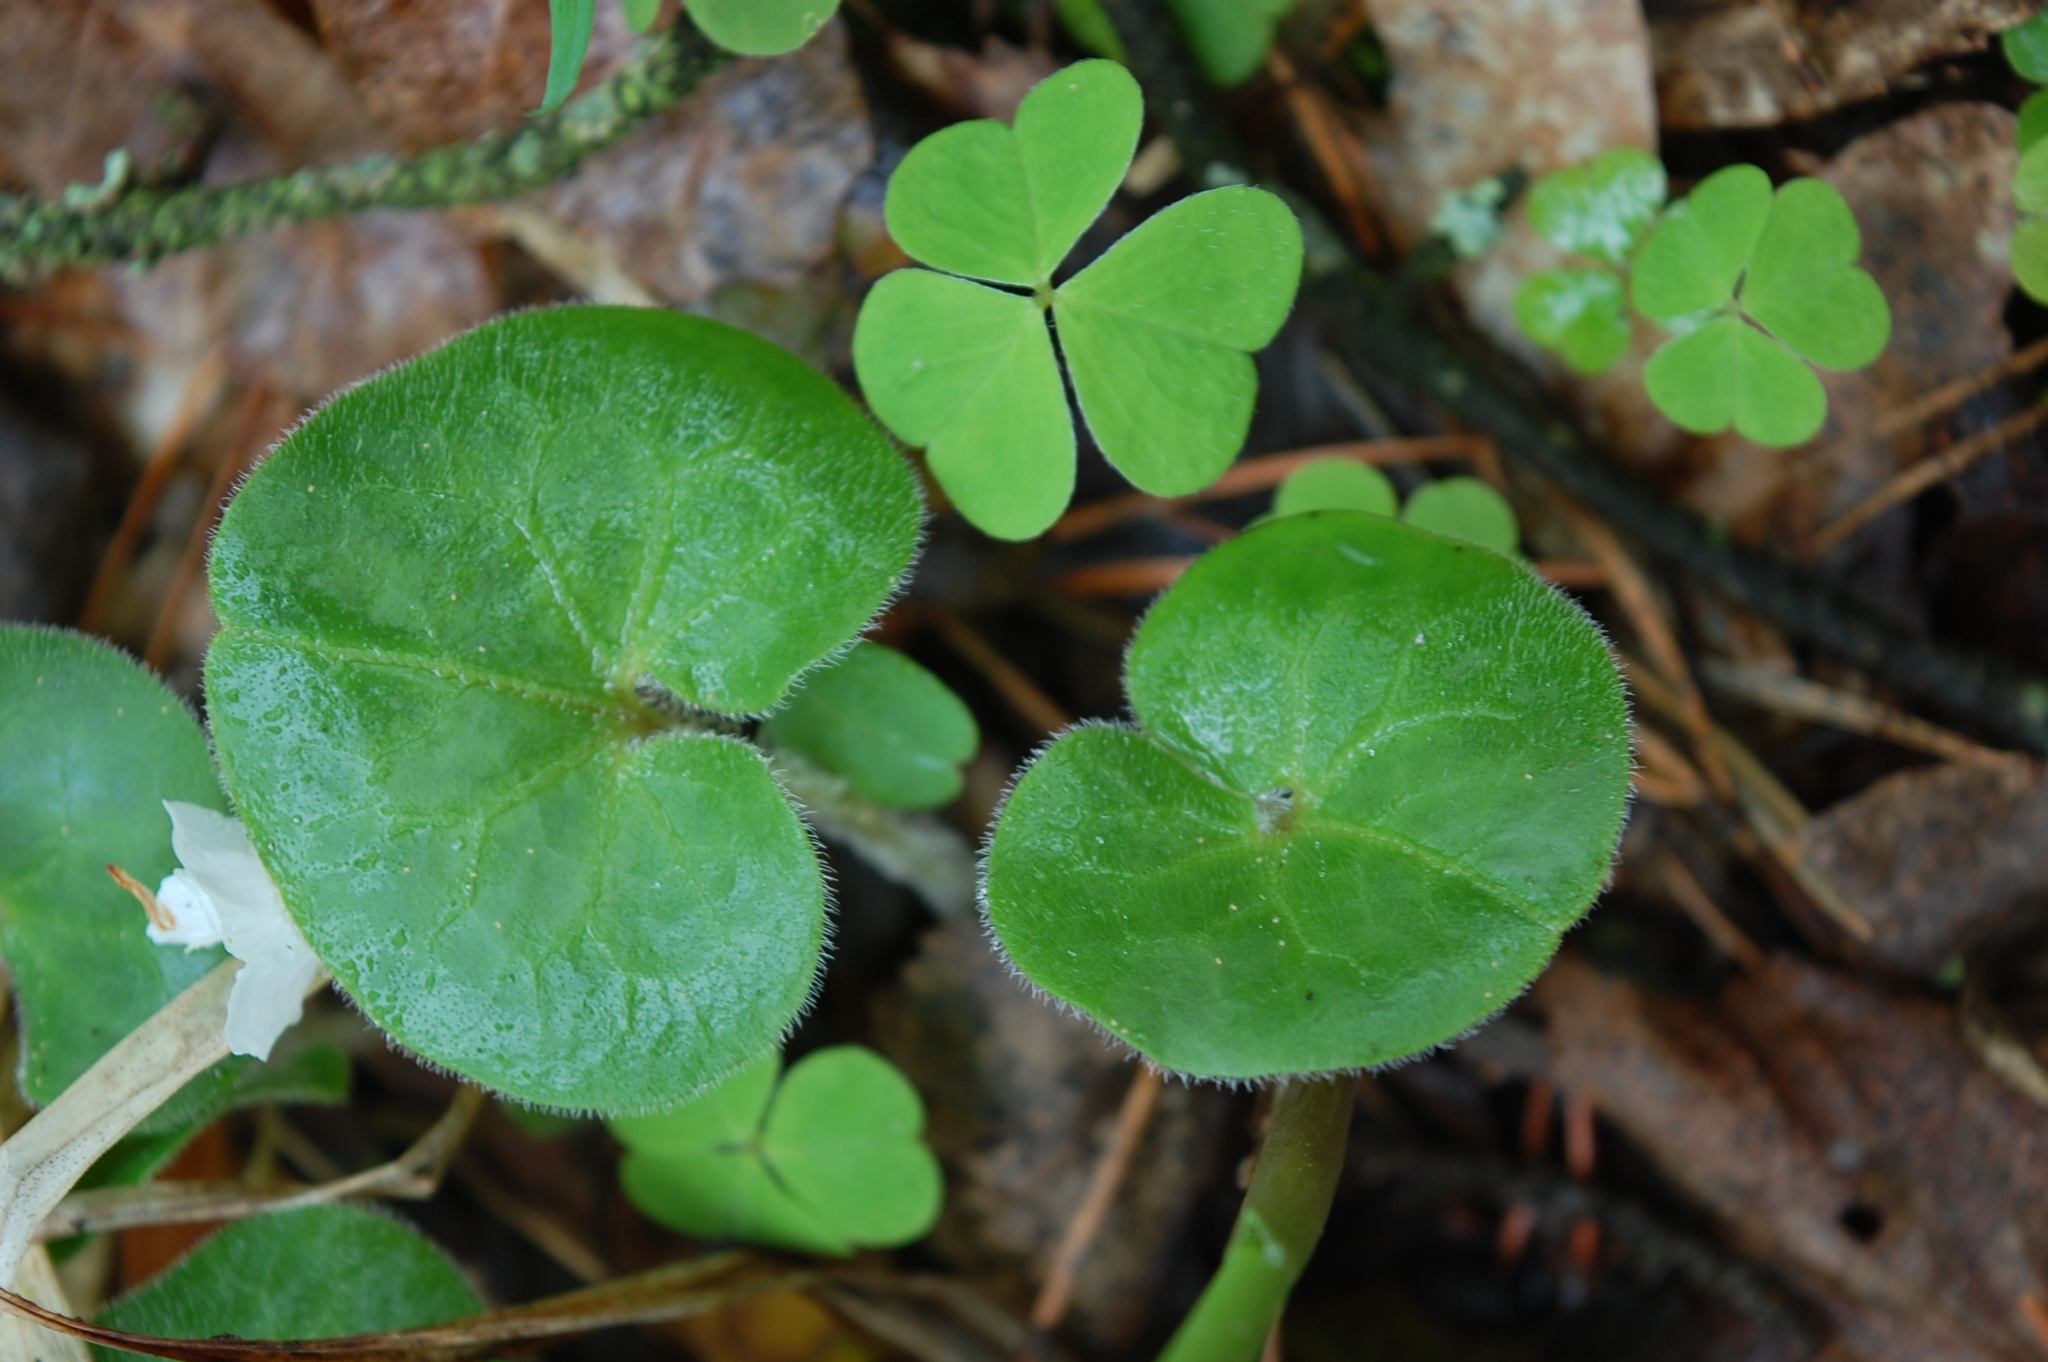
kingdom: Plantae
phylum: Tracheophyta
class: Magnoliopsida
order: Piperales
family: Aristolochiaceae
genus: Asarum
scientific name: Asarum europaeum
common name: Asarabacca
